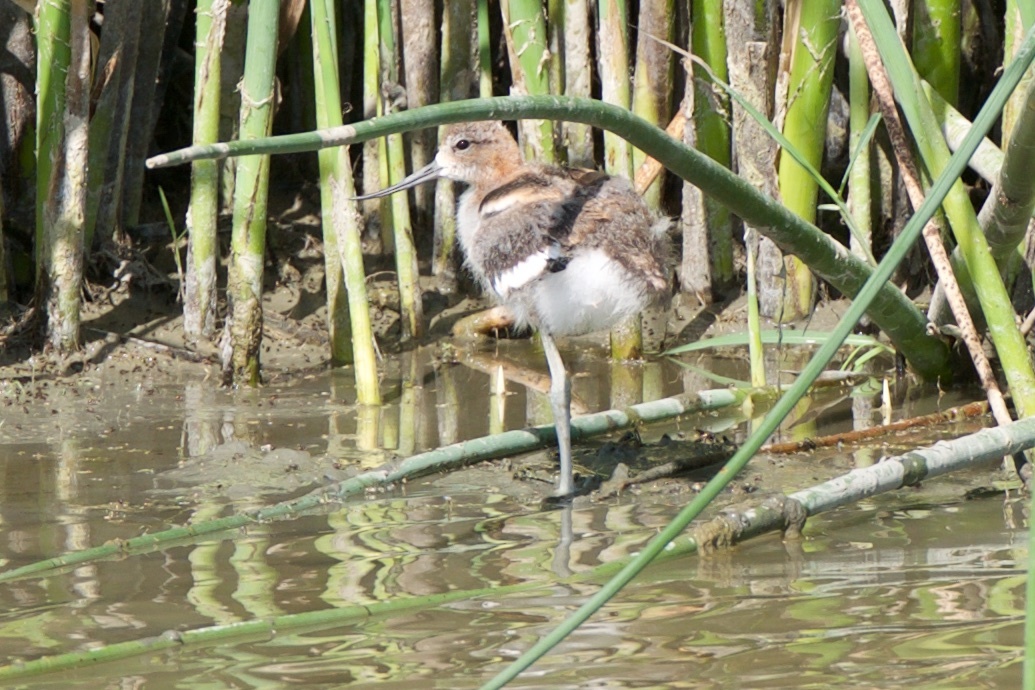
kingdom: Animalia
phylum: Chordata
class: Aves
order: Charadriiformes
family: Recurvirostridae
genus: Recurvirostra
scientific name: Recurvirostra americana
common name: American avocet
